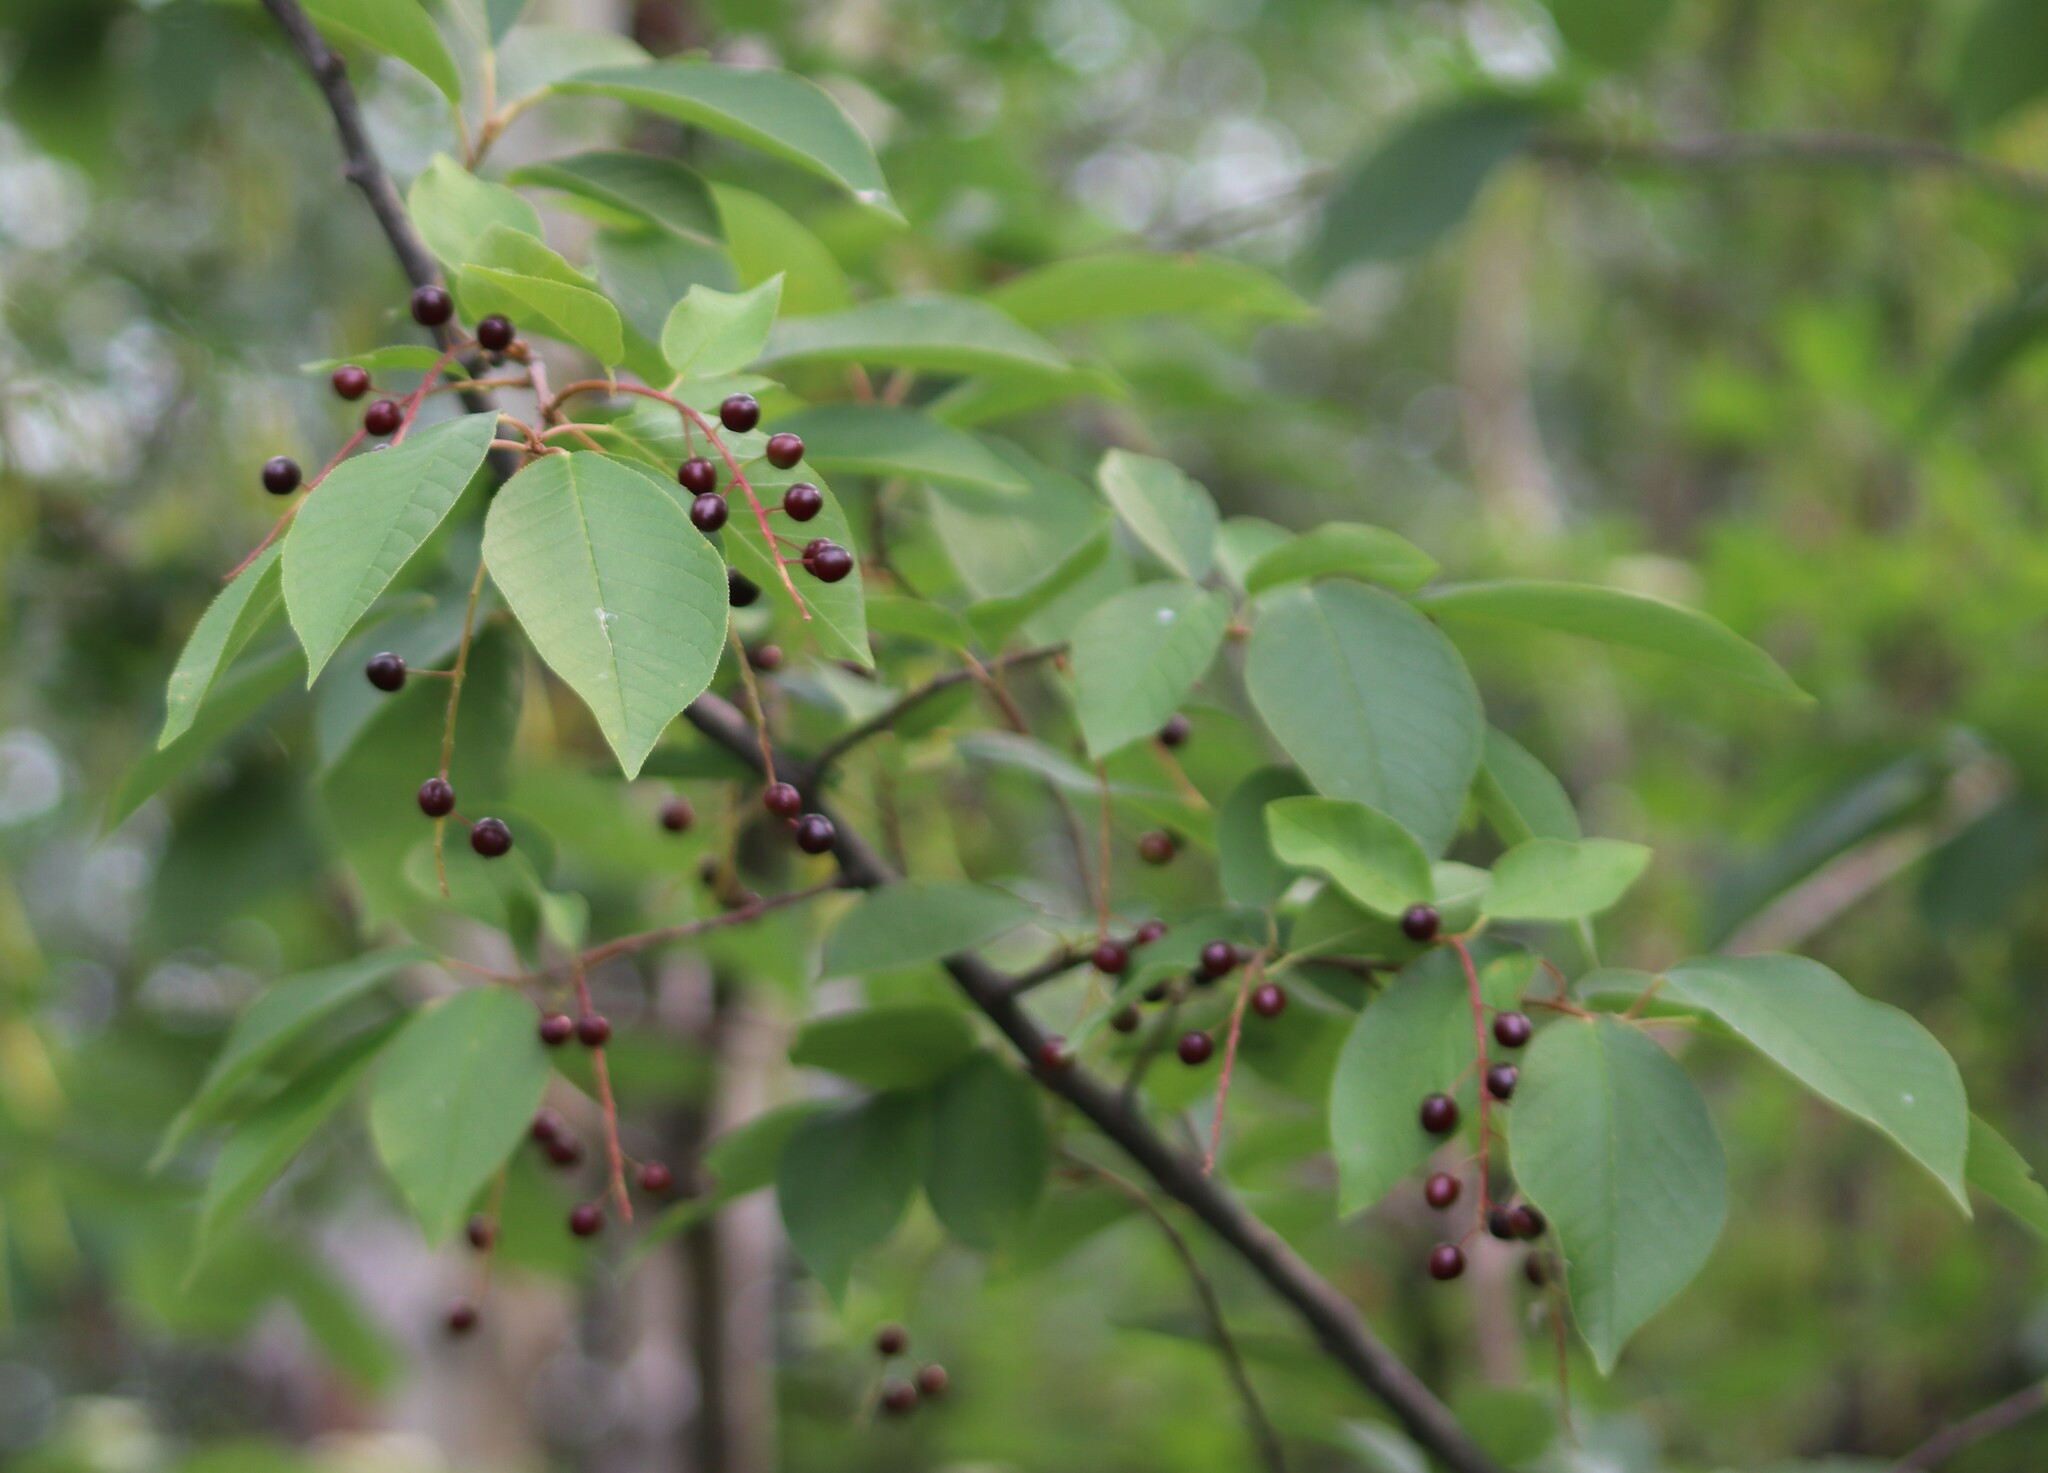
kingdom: Plantae
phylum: Tracheophyta
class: Magnoliopsida
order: Rosales
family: Rosaceae
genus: Prunus
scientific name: Prunus virginiana
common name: Chokecherry
